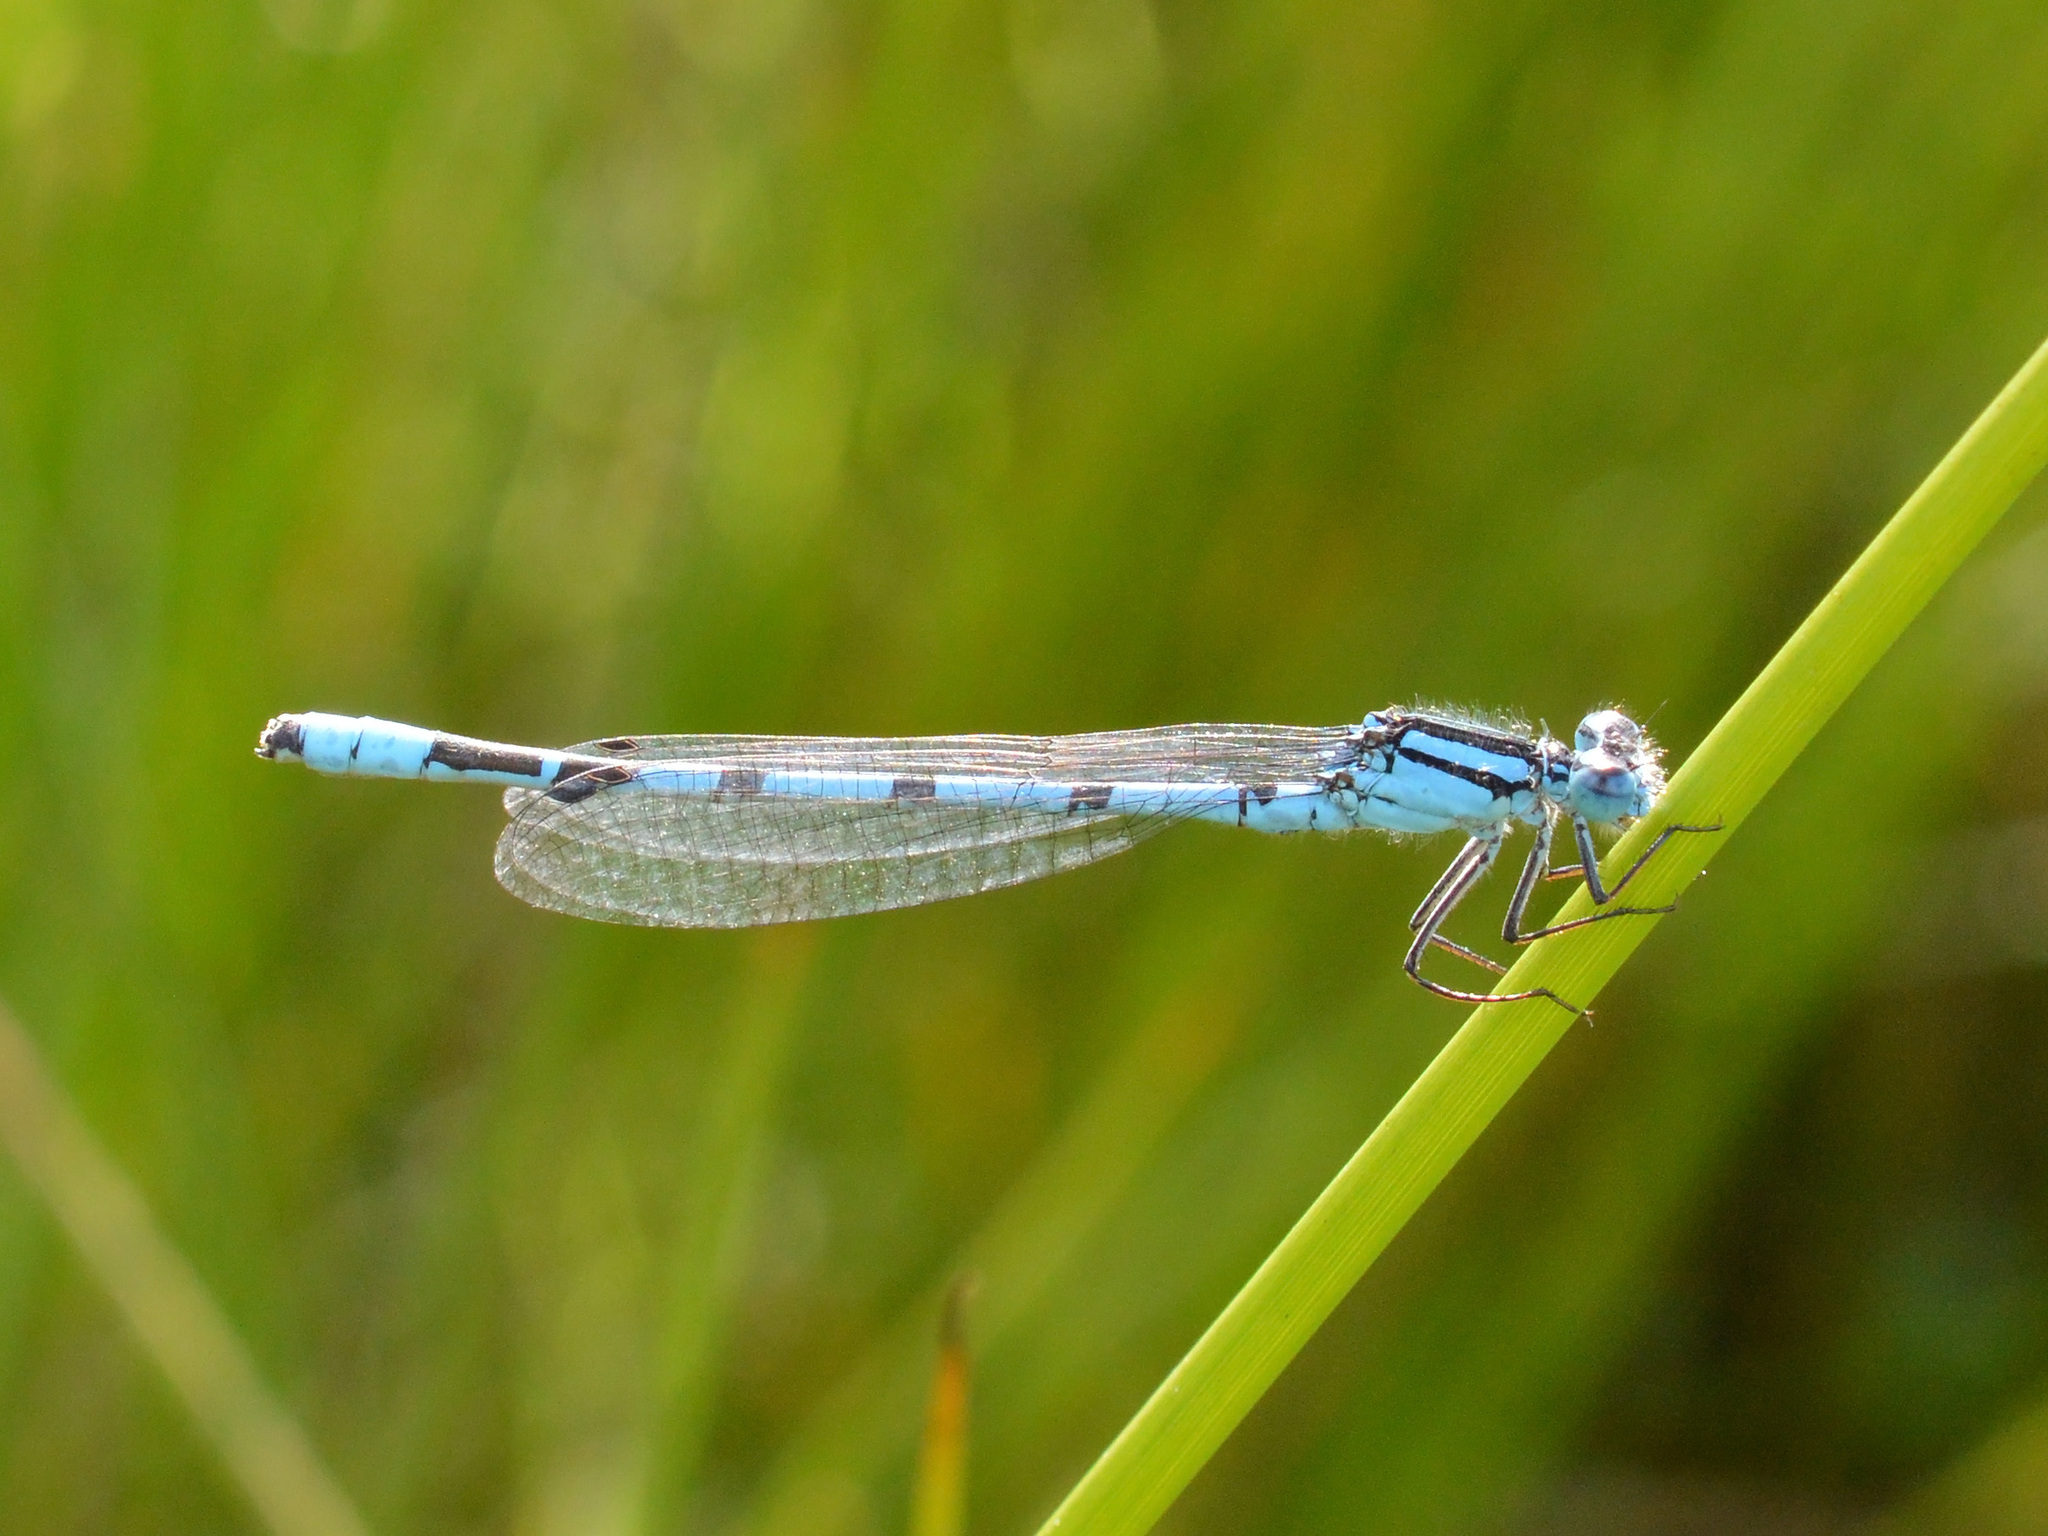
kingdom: Animalia
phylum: Arthropoda
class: Insecta
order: Odonata
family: Coenagrionidae
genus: Enallagma
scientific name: Enallagma cyathigerum
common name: Common blue damselfly
